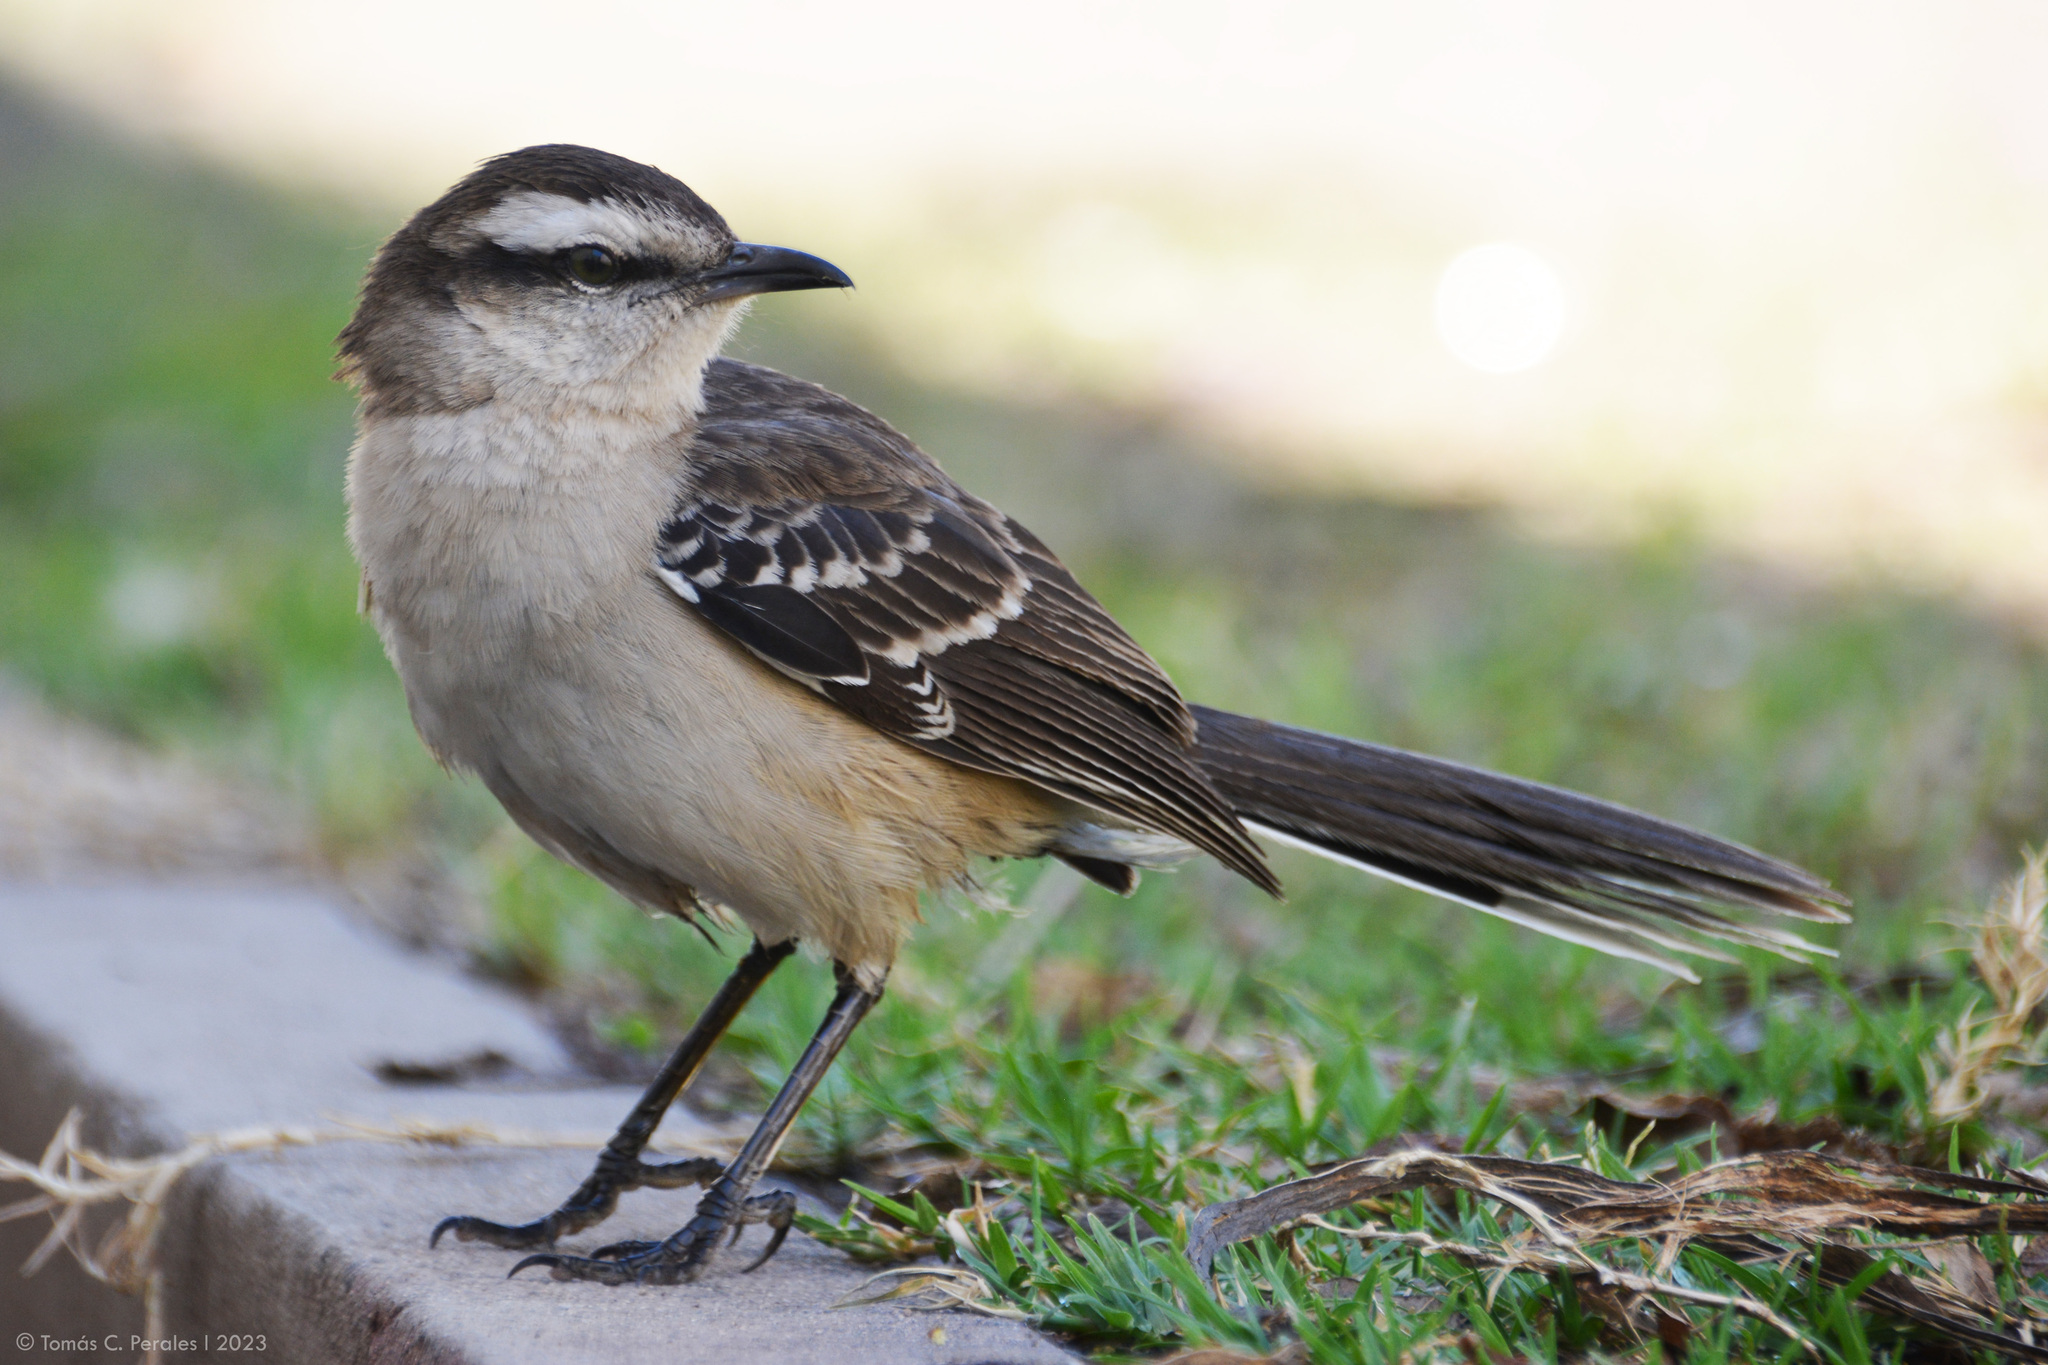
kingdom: Animalia
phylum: Chordata
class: Aves
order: Passeriformes
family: Mimidae
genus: Mimus
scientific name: Mimus saturninus
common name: Chalk-browed mockingbird
